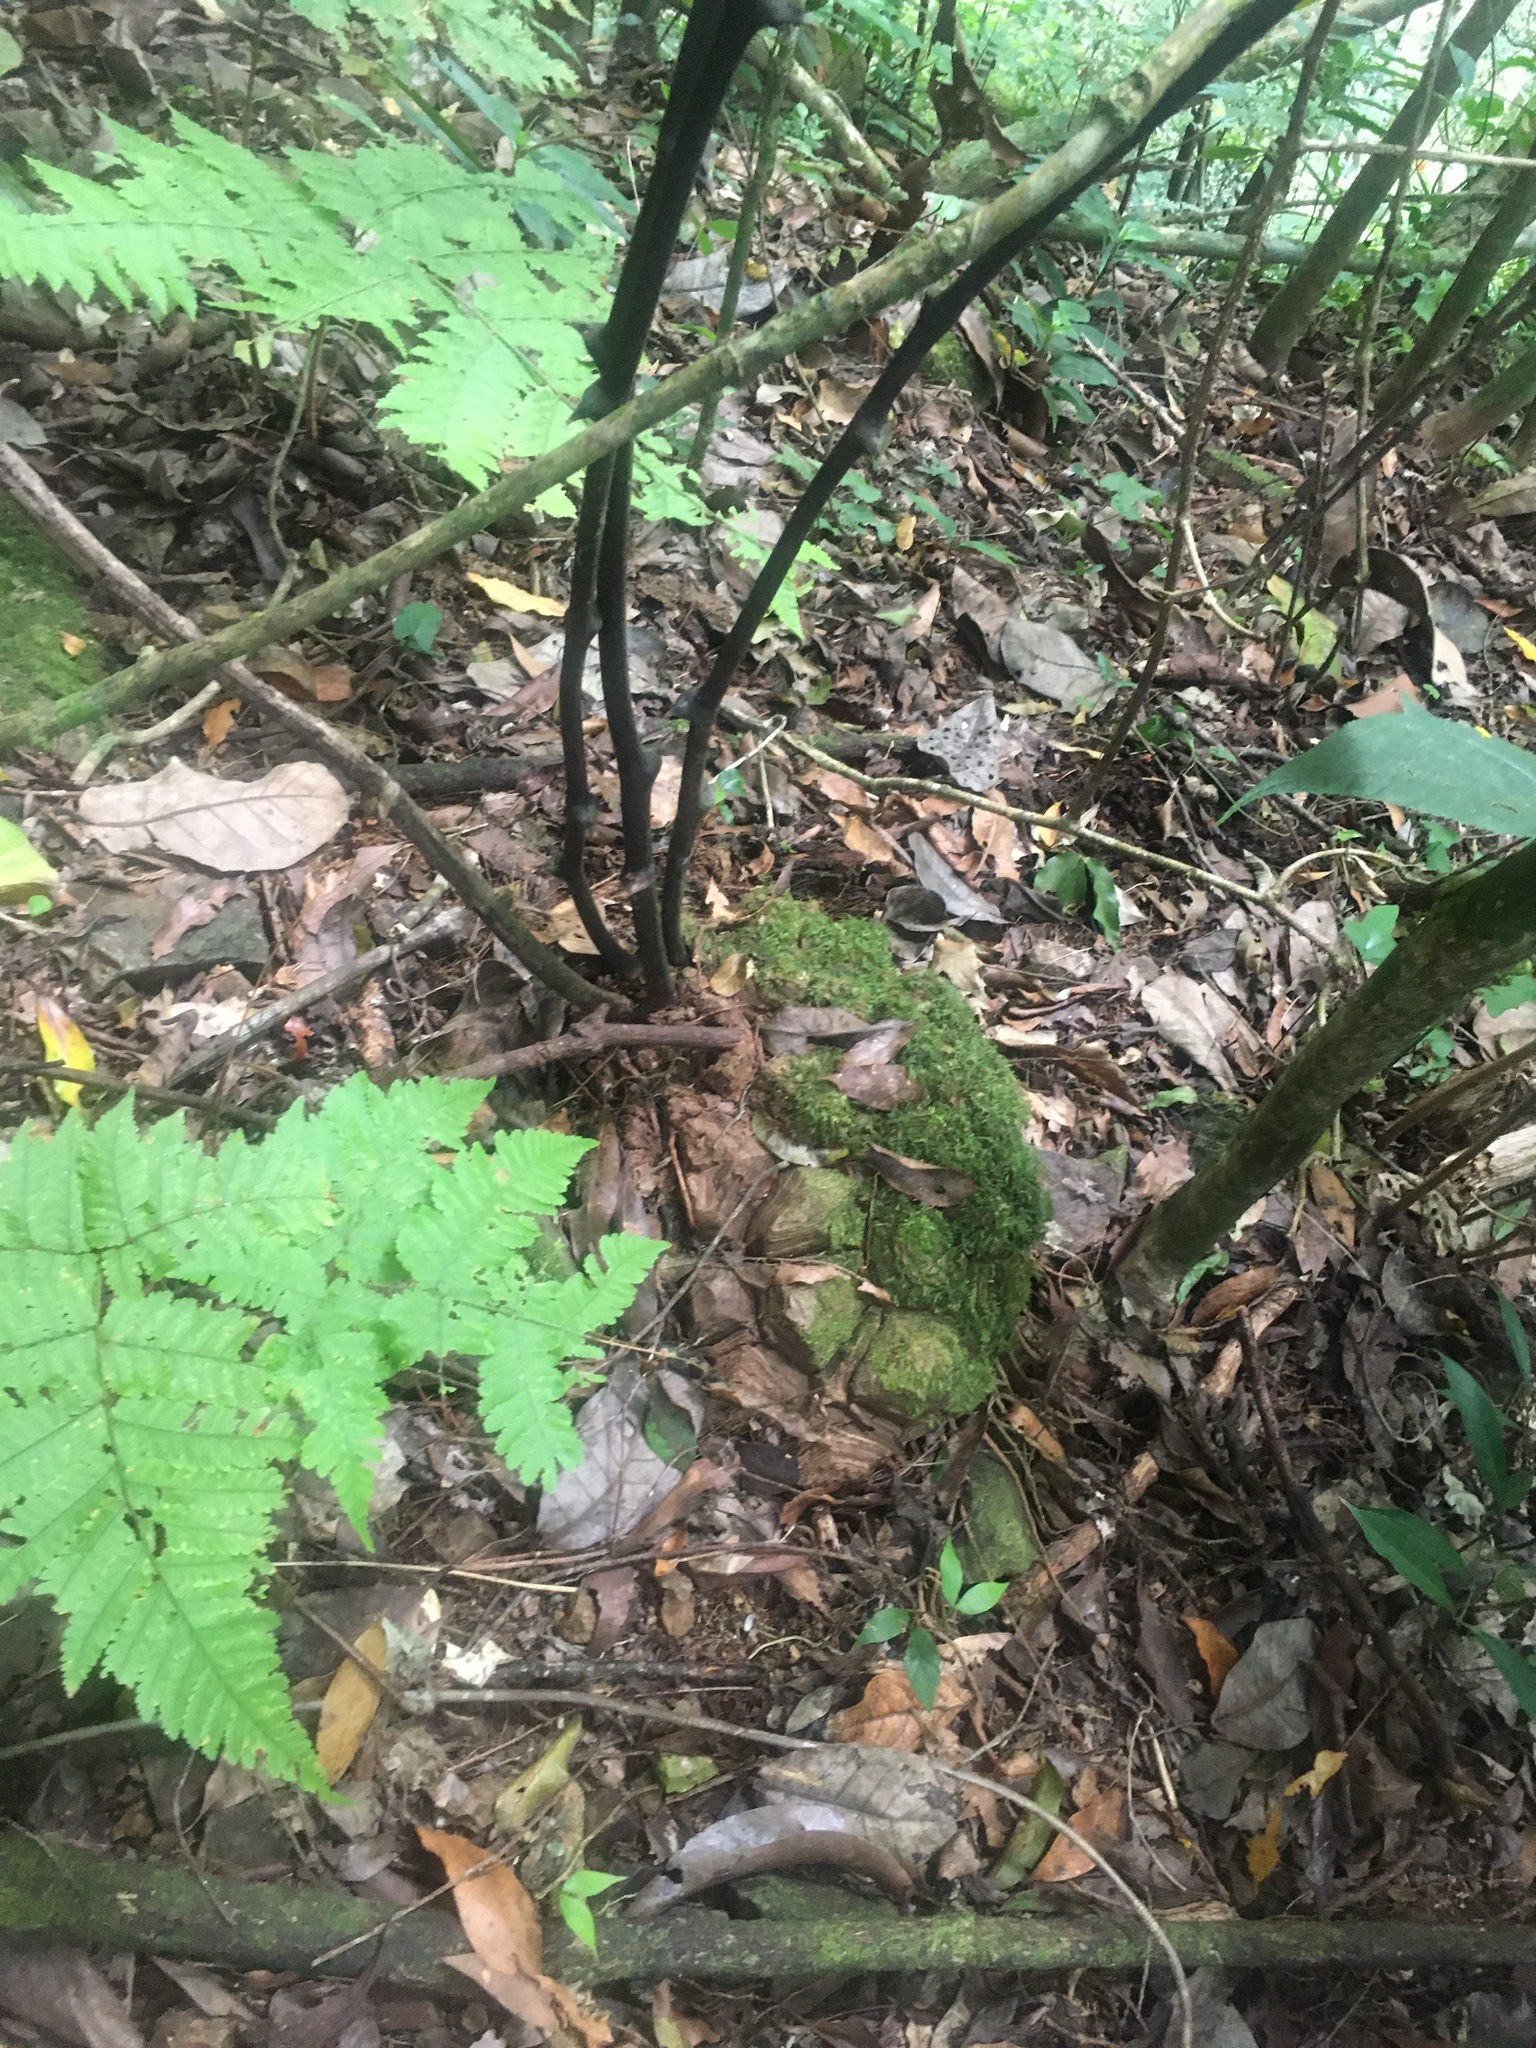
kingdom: Plantae
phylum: Tracheophyta
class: Liliopsida
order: Dioscoreales
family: Dioscoreaceae
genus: Dioscorea
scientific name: Dioscorea mexicana
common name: Mexican yam
